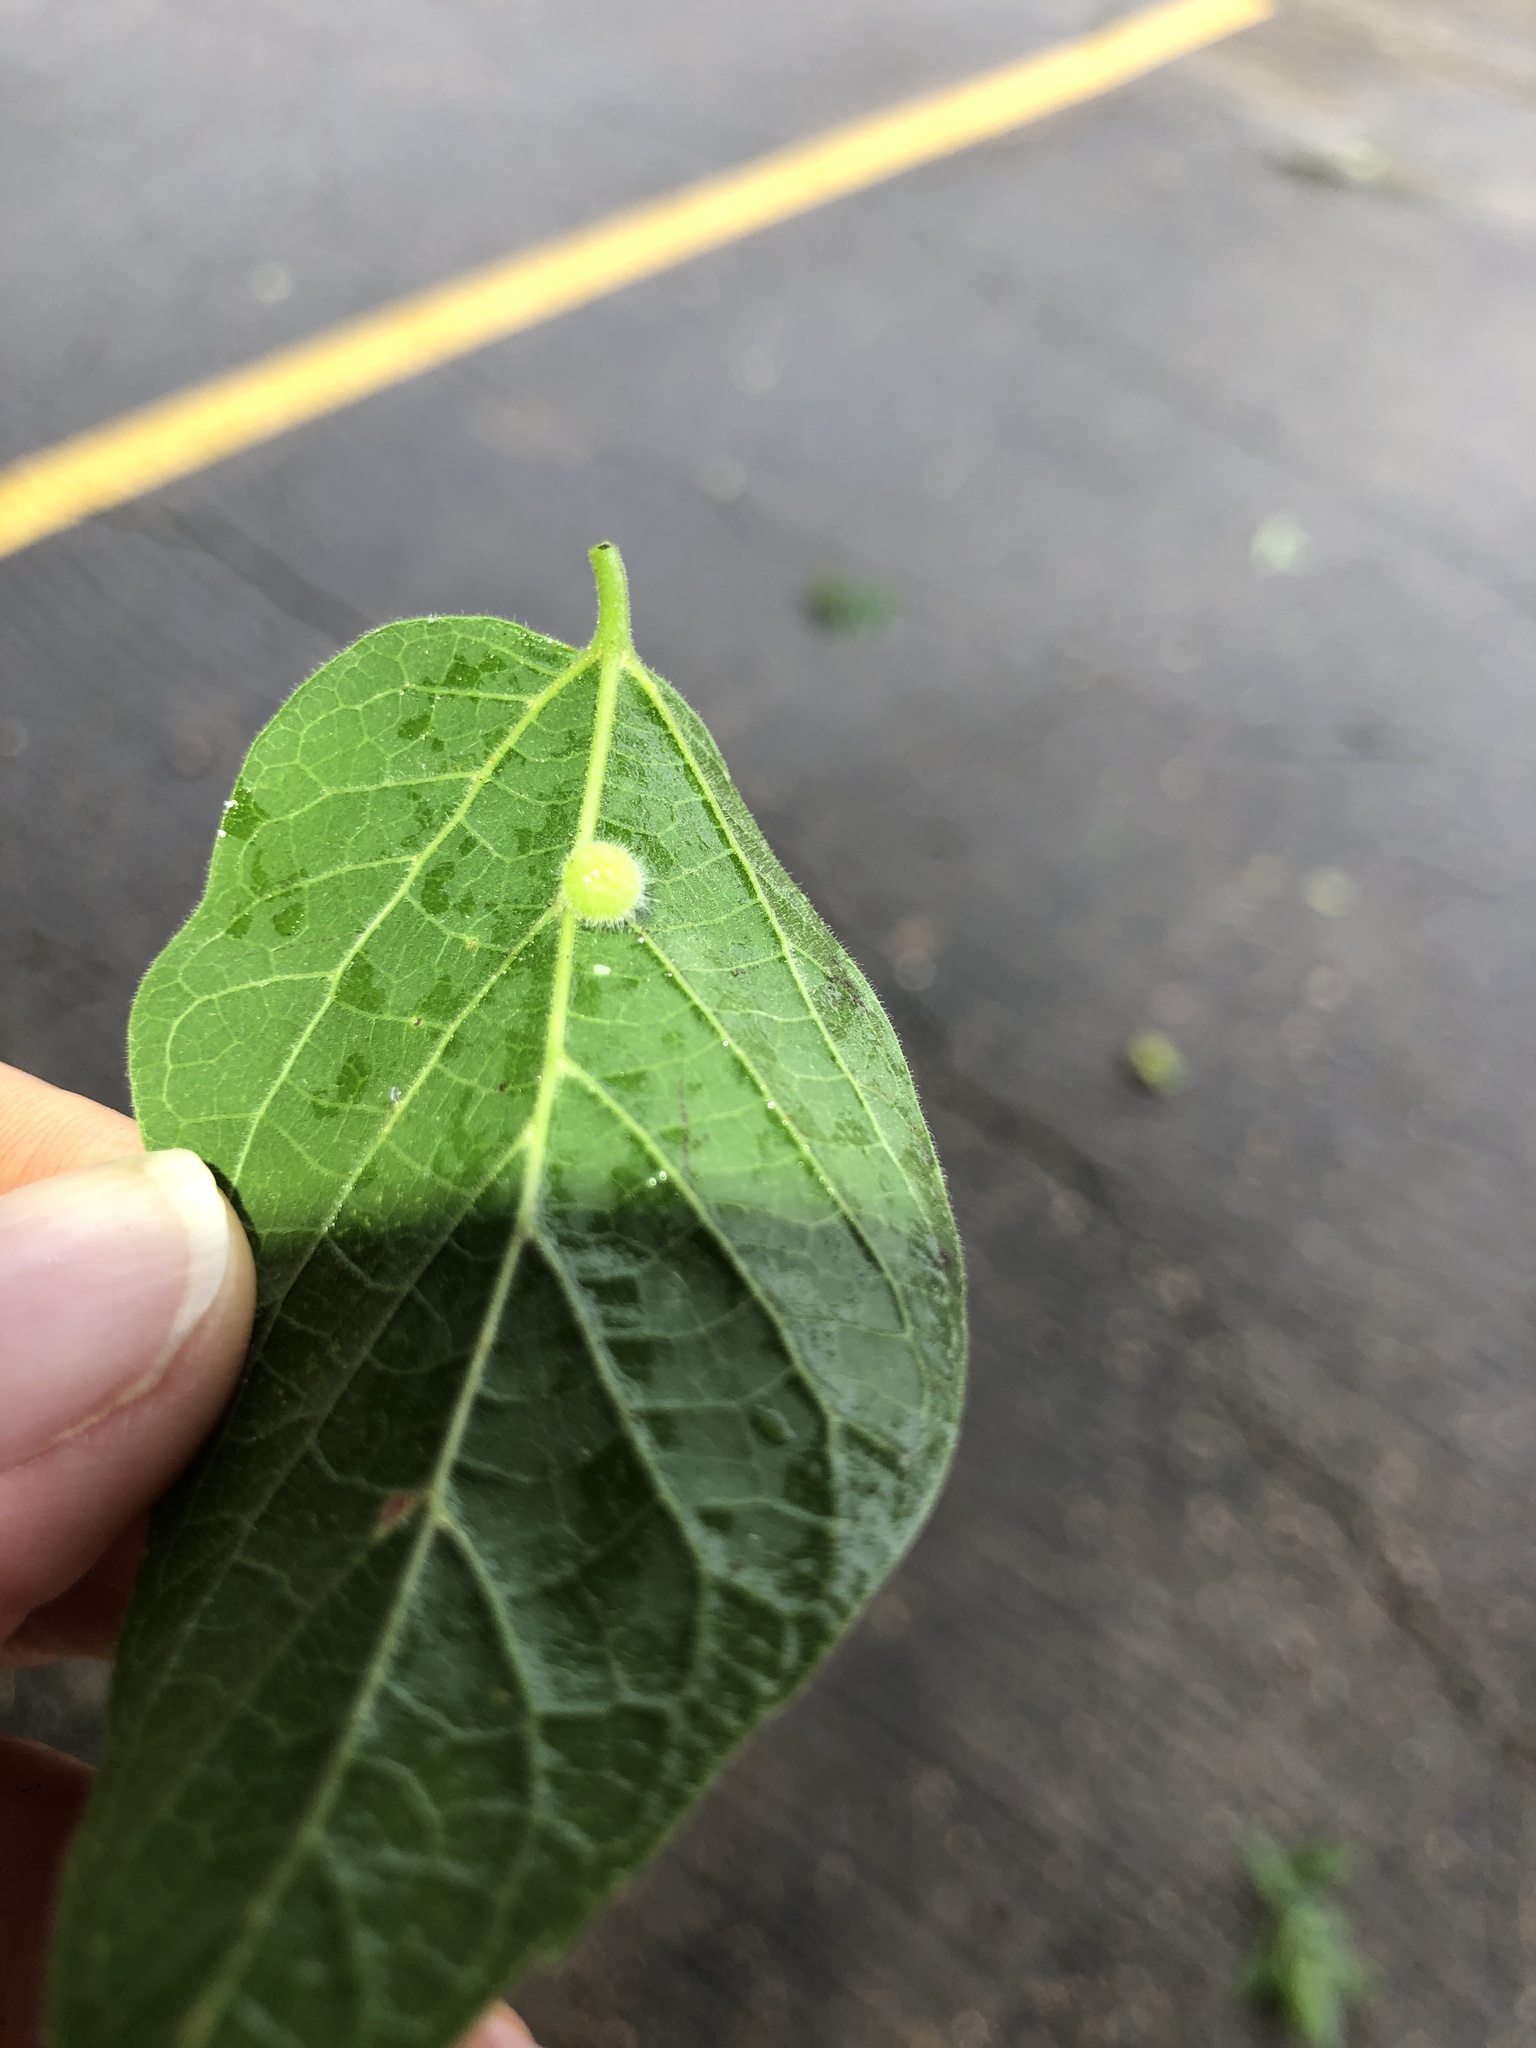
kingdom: Animalia
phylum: Arthropoda
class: Insecta
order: Diptera
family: Cecidomyiidae
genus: Celticecis
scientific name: Celticecis pubescens
